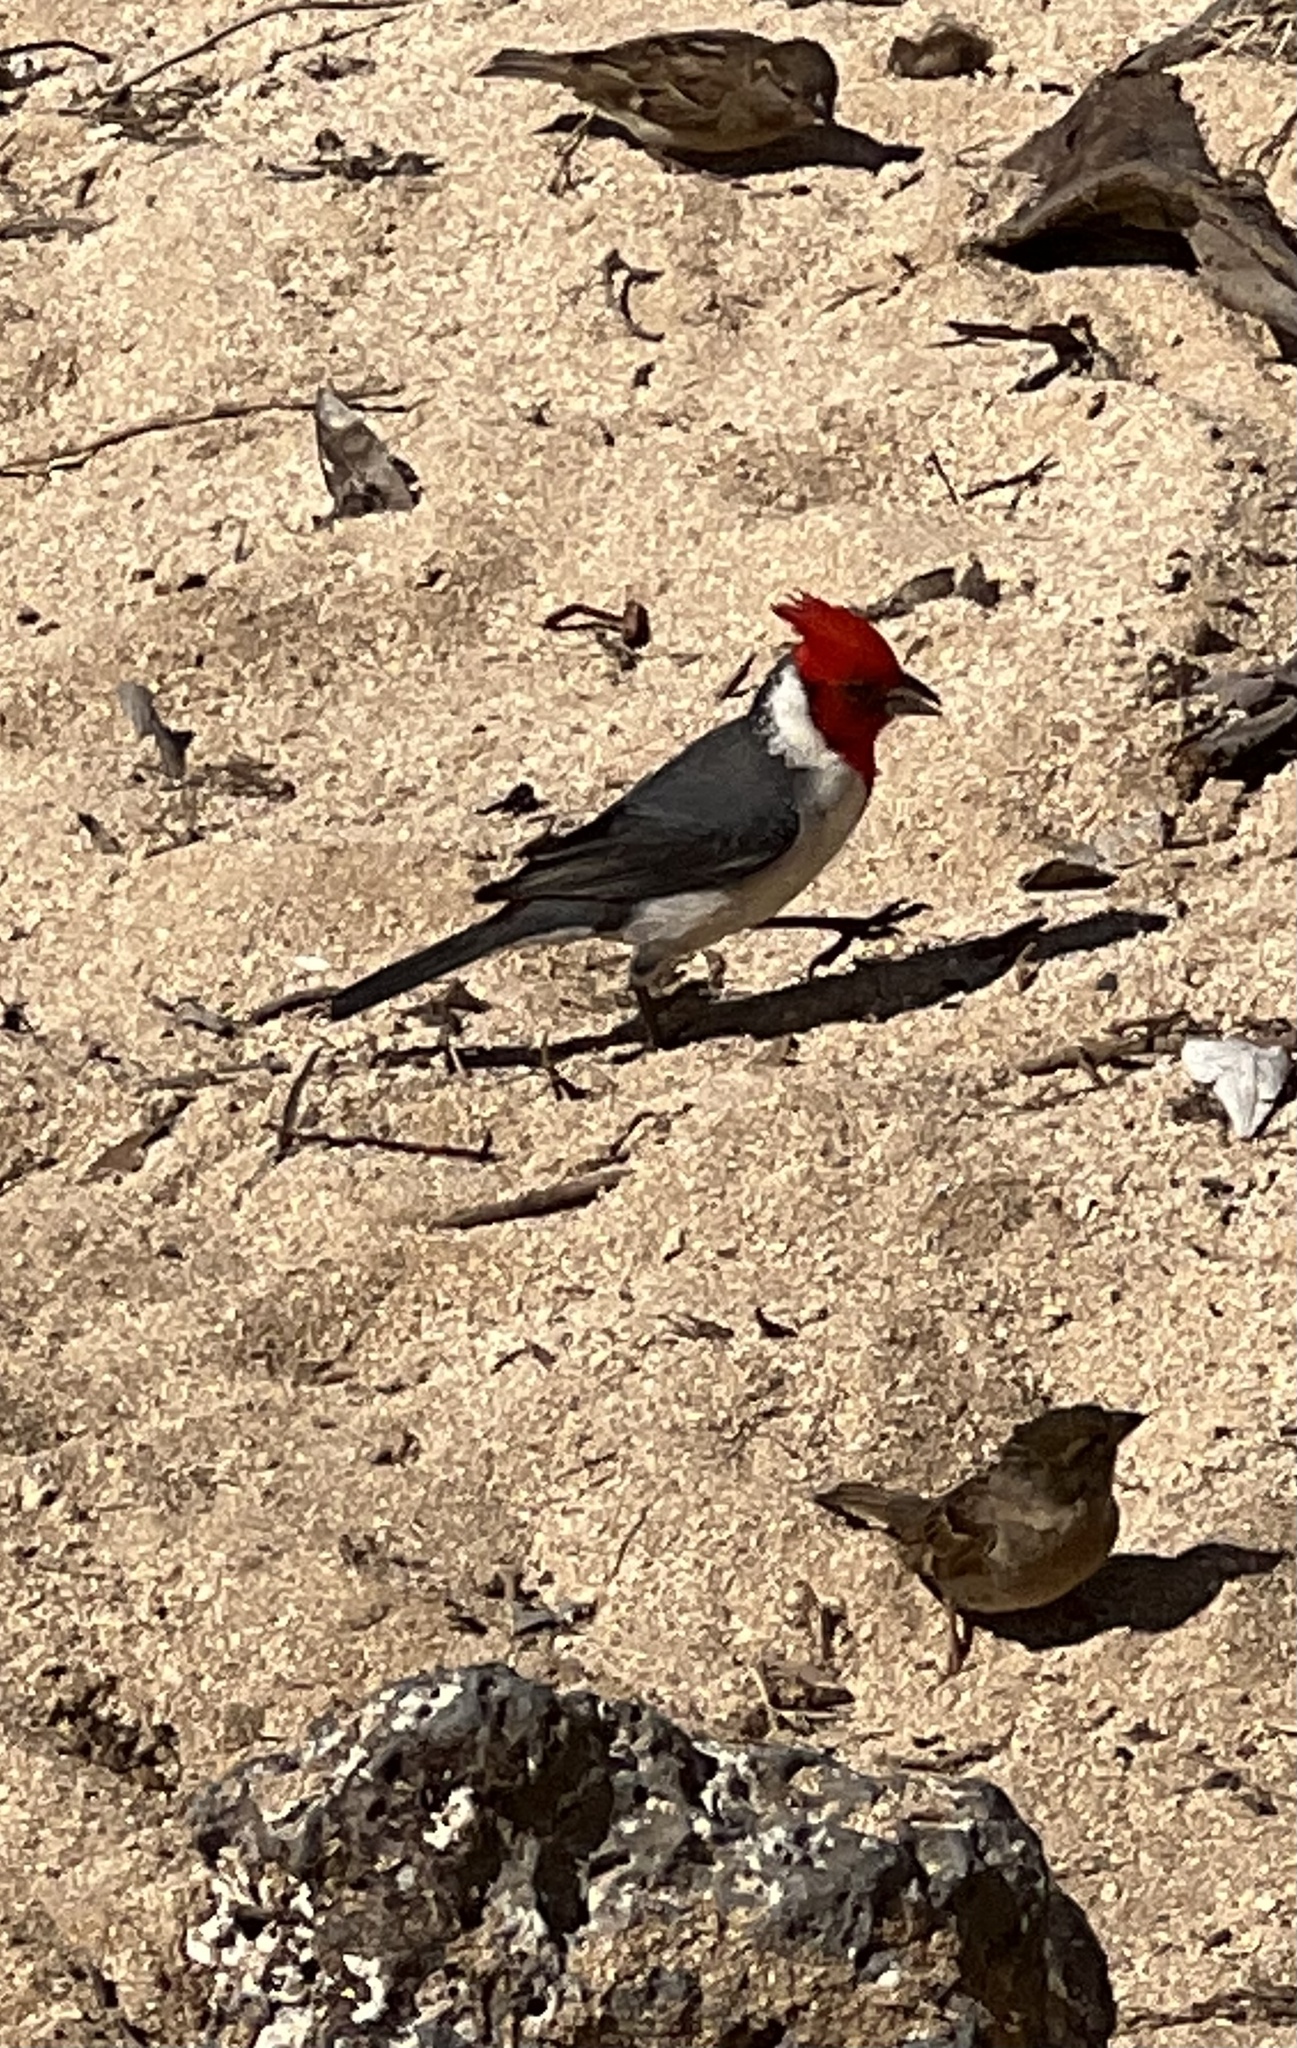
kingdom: Animalia
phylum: Chordata
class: Aves
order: Passeriformes
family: Thraupidae
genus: Paroaria
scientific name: Paroaria coronata
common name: Red-crested cardinal
